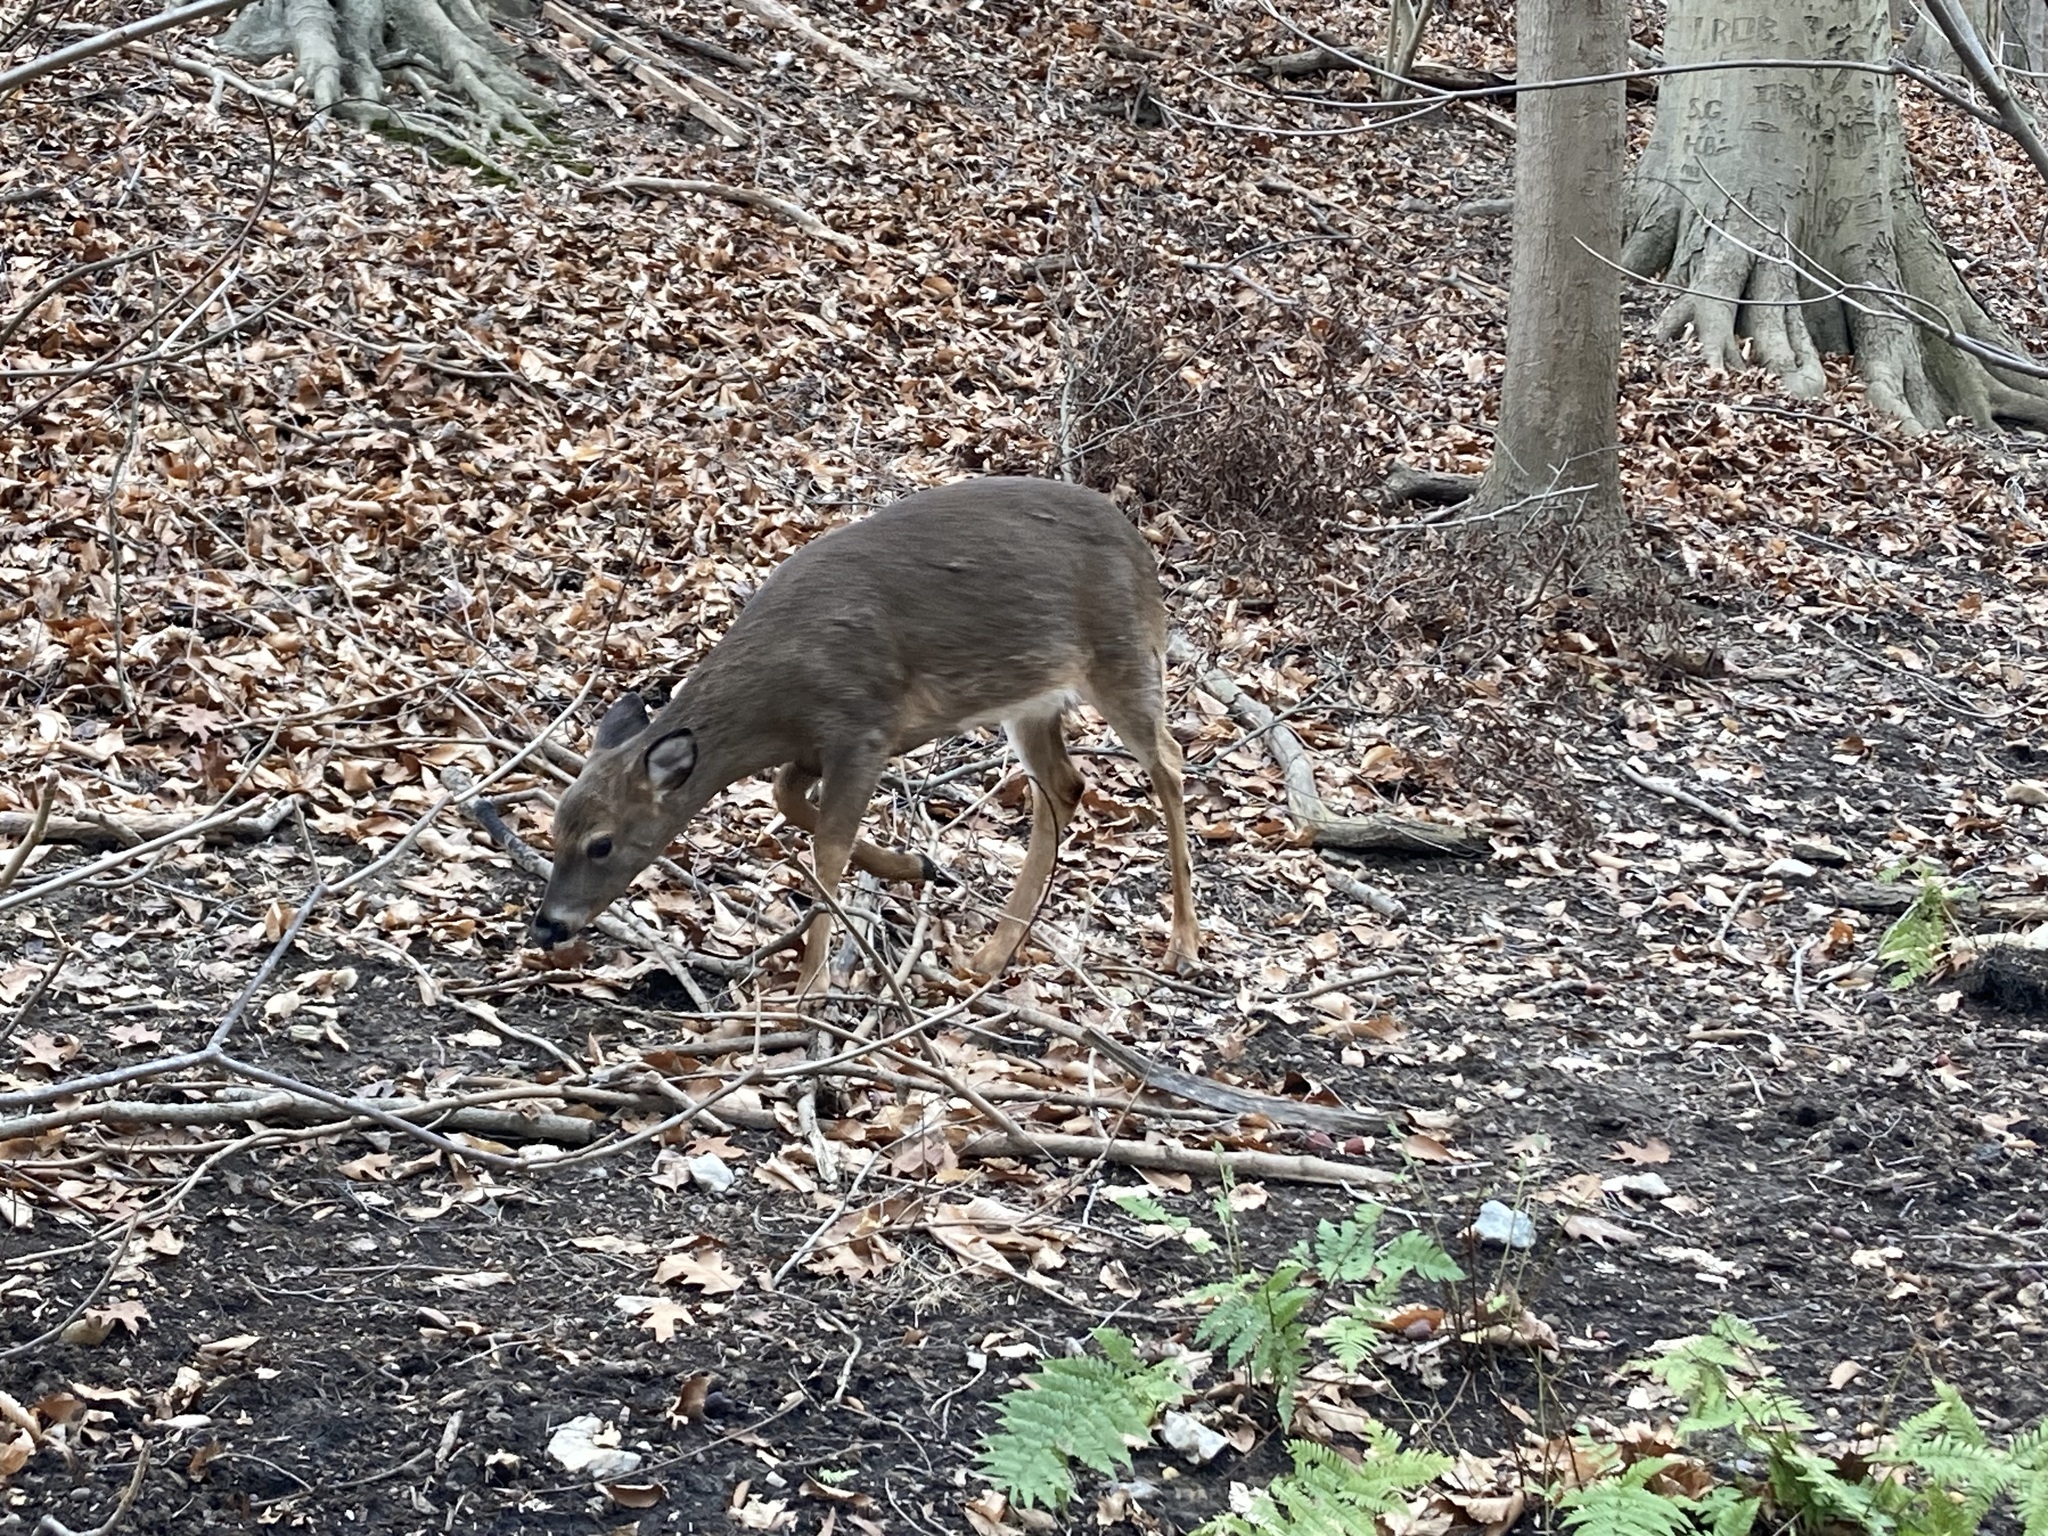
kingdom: Animalia
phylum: Chordata
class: Mammalia
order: Artiodactyla
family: Cervidae
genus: Odocoileus
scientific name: Odocoileus virginianus
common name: White-tailed deer
